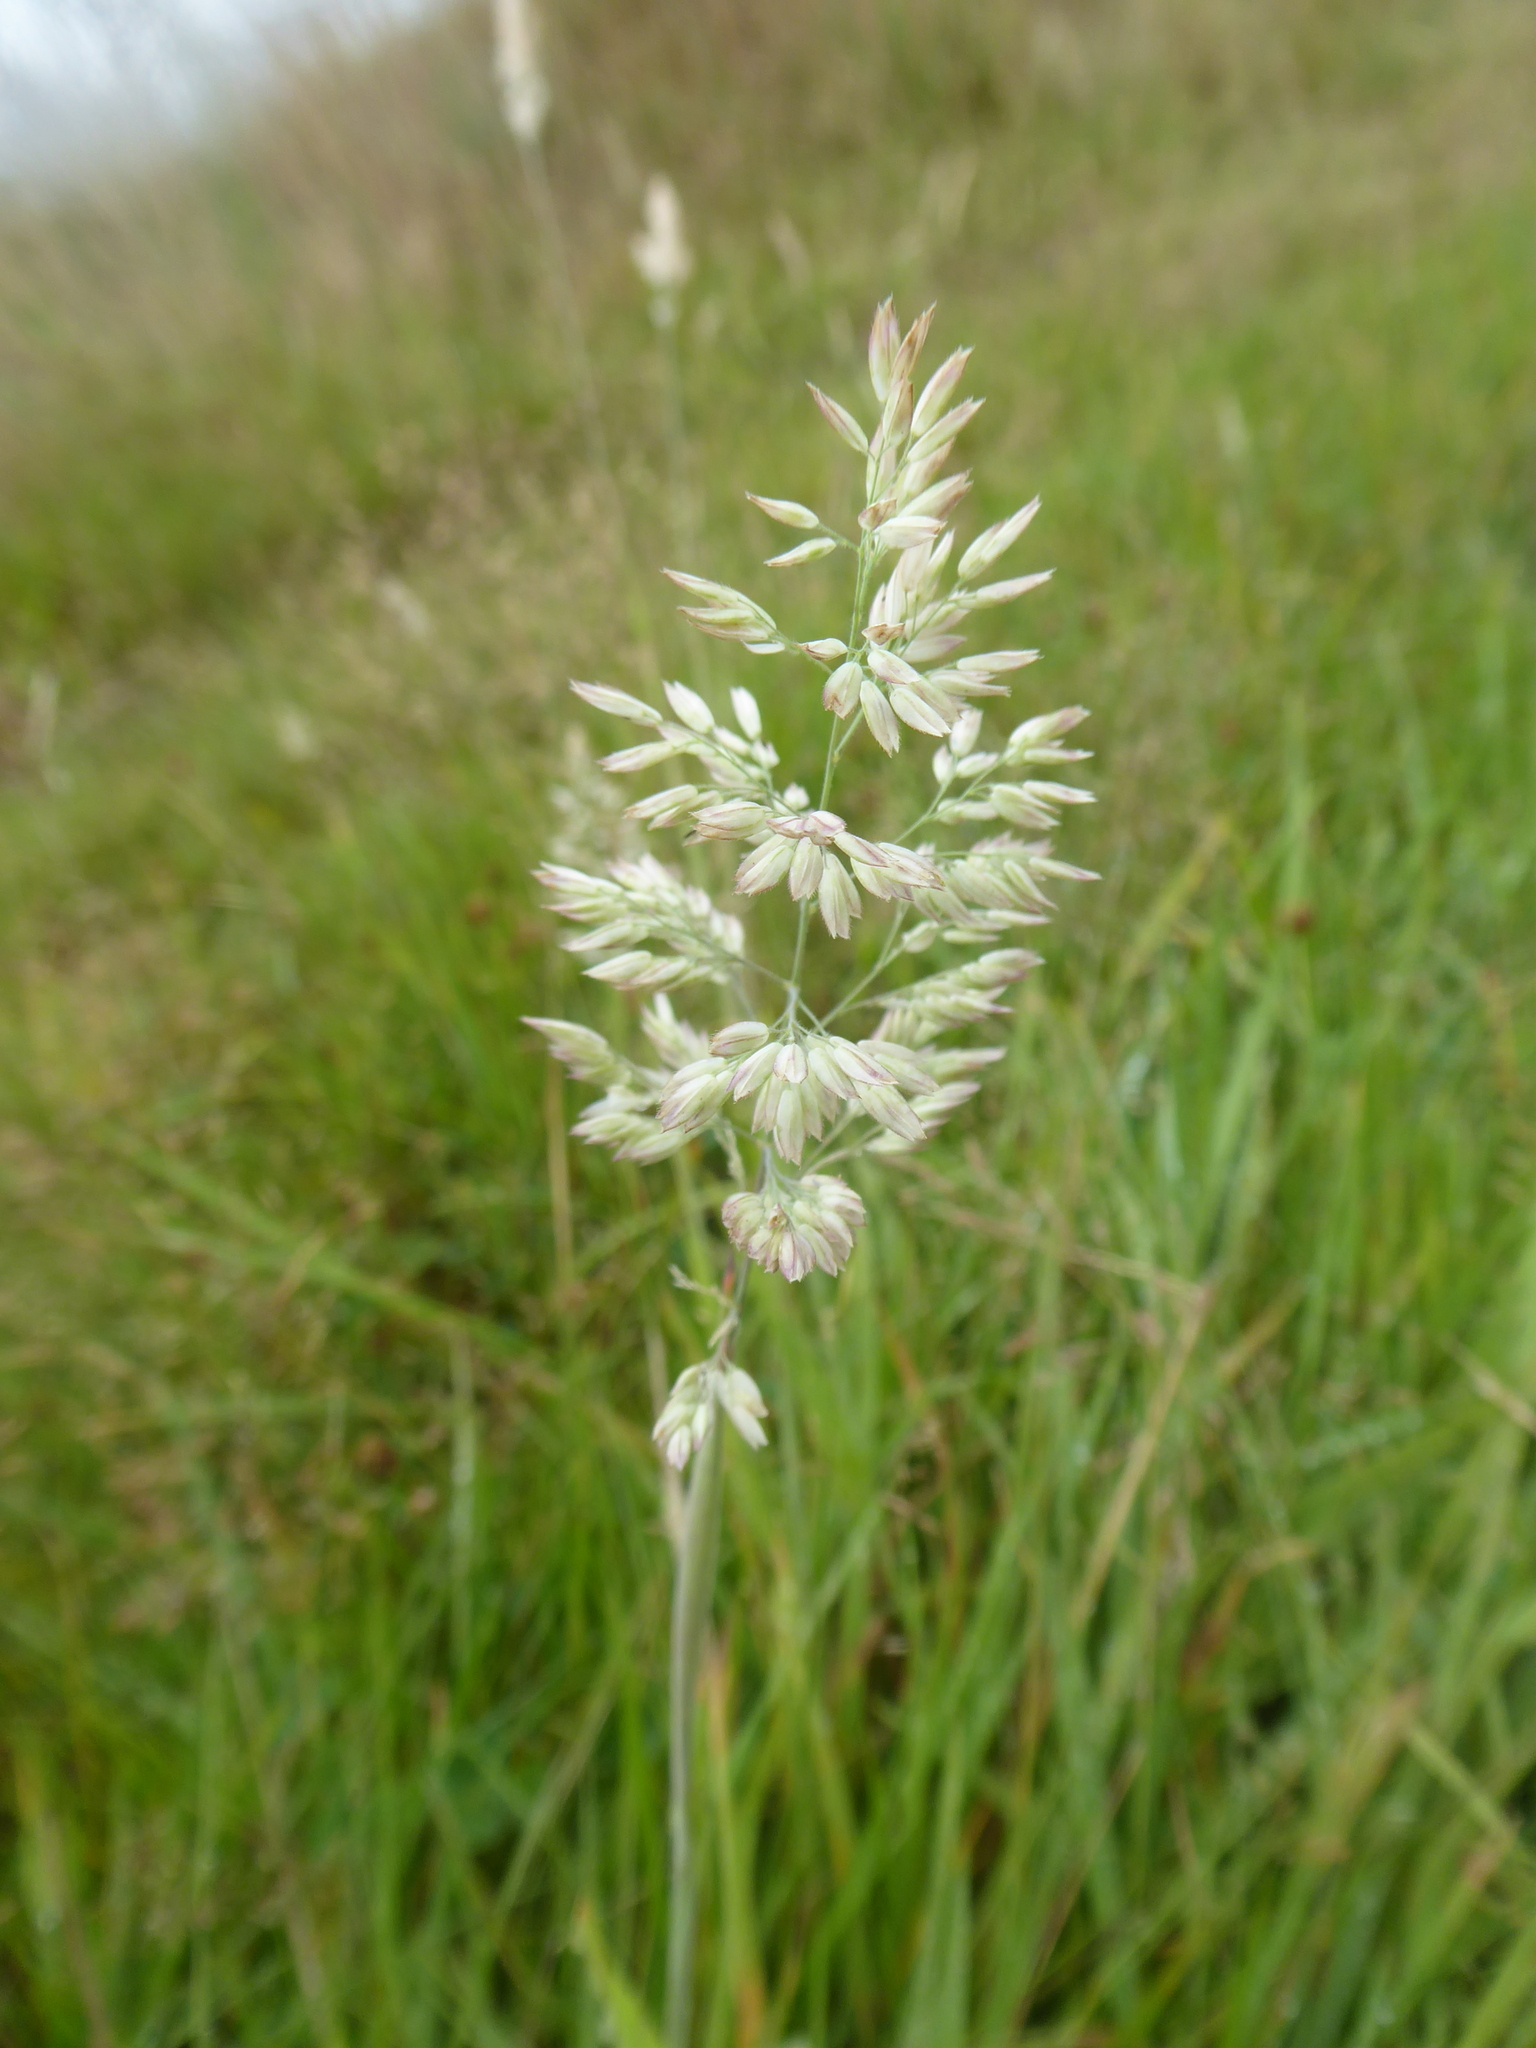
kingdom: Plantae
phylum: Tracheophyta
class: Liliopsida
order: Poales
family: Poaceae
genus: Holcus
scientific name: Holcus lanatus
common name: Yorkshire-fog
